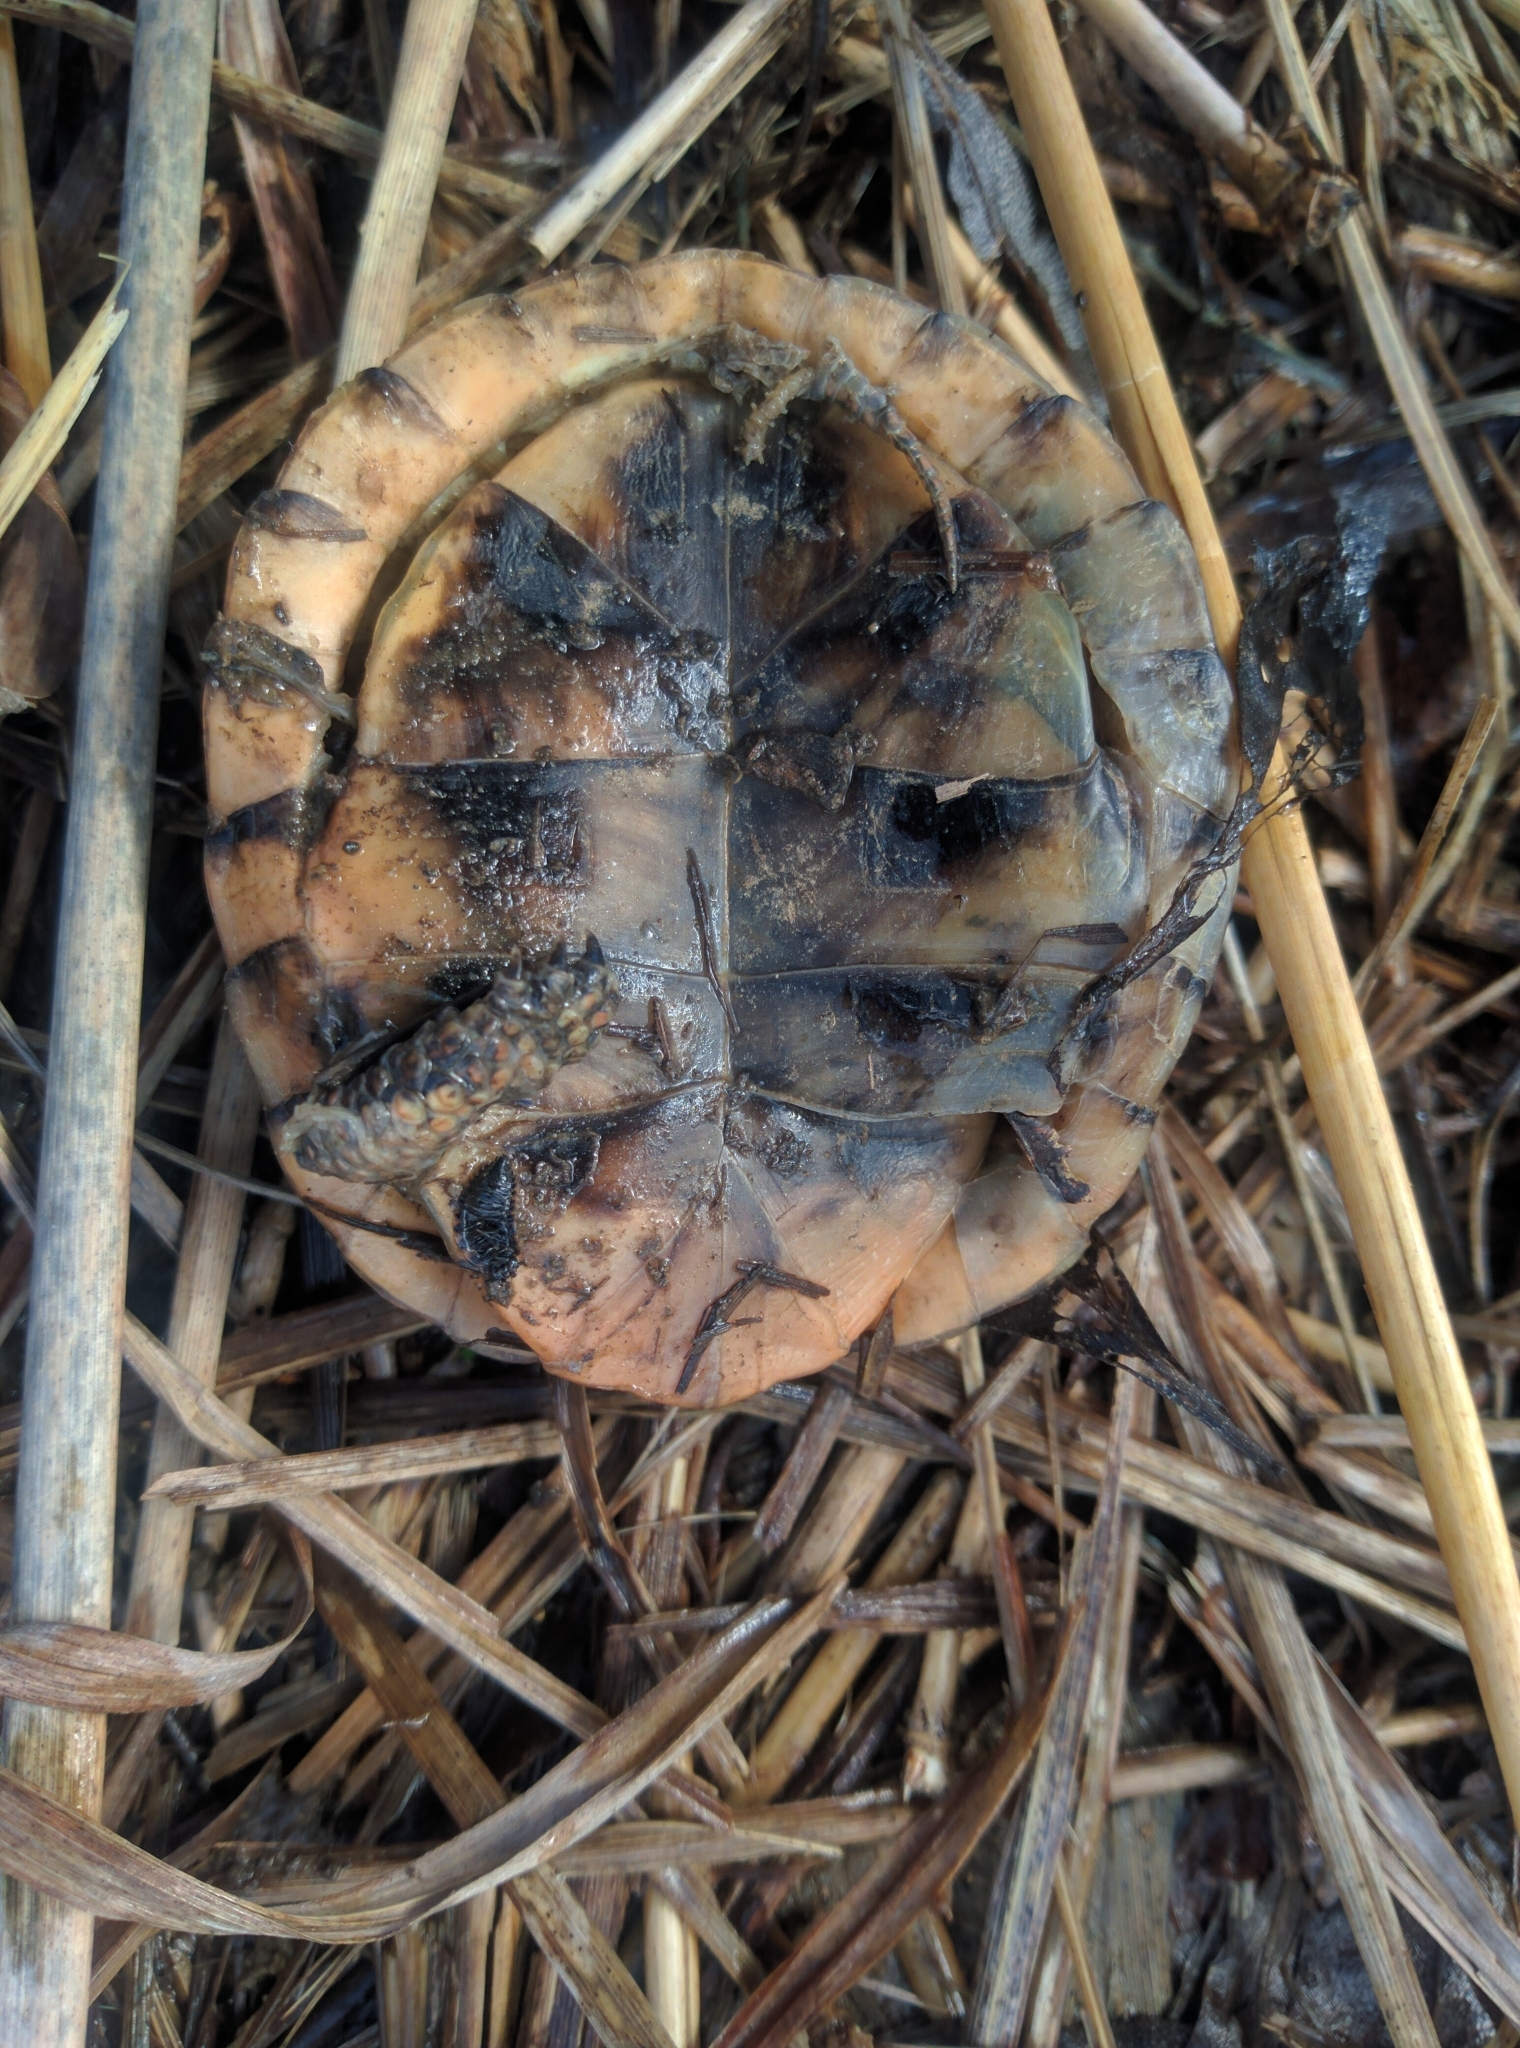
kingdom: Animalia
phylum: Chordata
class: Testudines
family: Emydidae
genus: Terrapene
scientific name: Terrapene carolina
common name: Common box turtle
